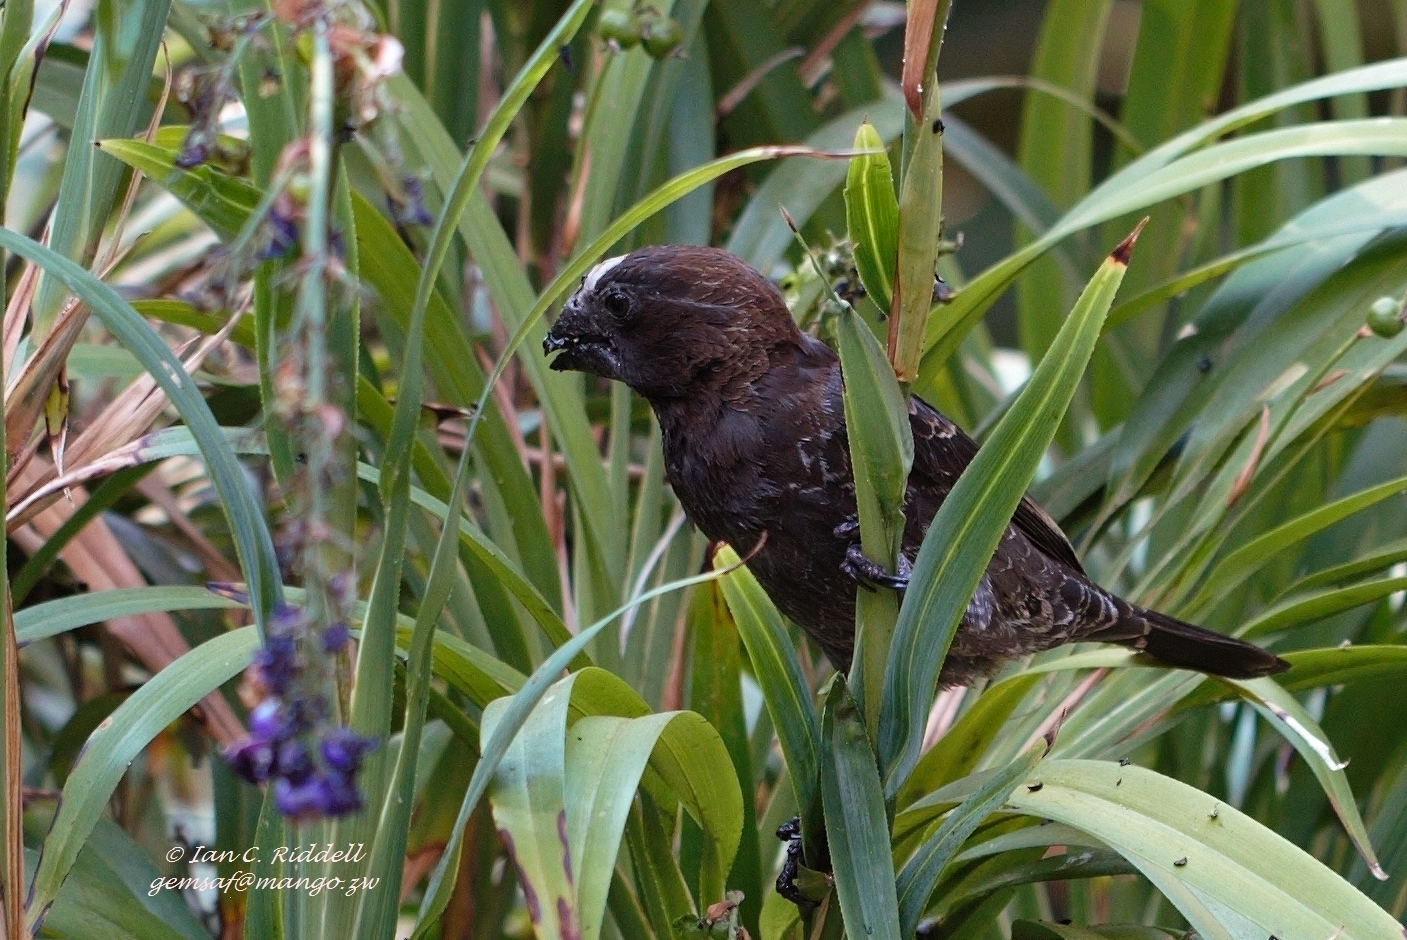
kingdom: Animalia
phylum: Chordata
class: Aves
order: Passeriformes
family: Ploceidae
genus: Amblyospiza
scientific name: Amblyospiza albifrons
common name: Thick-billed weaver
